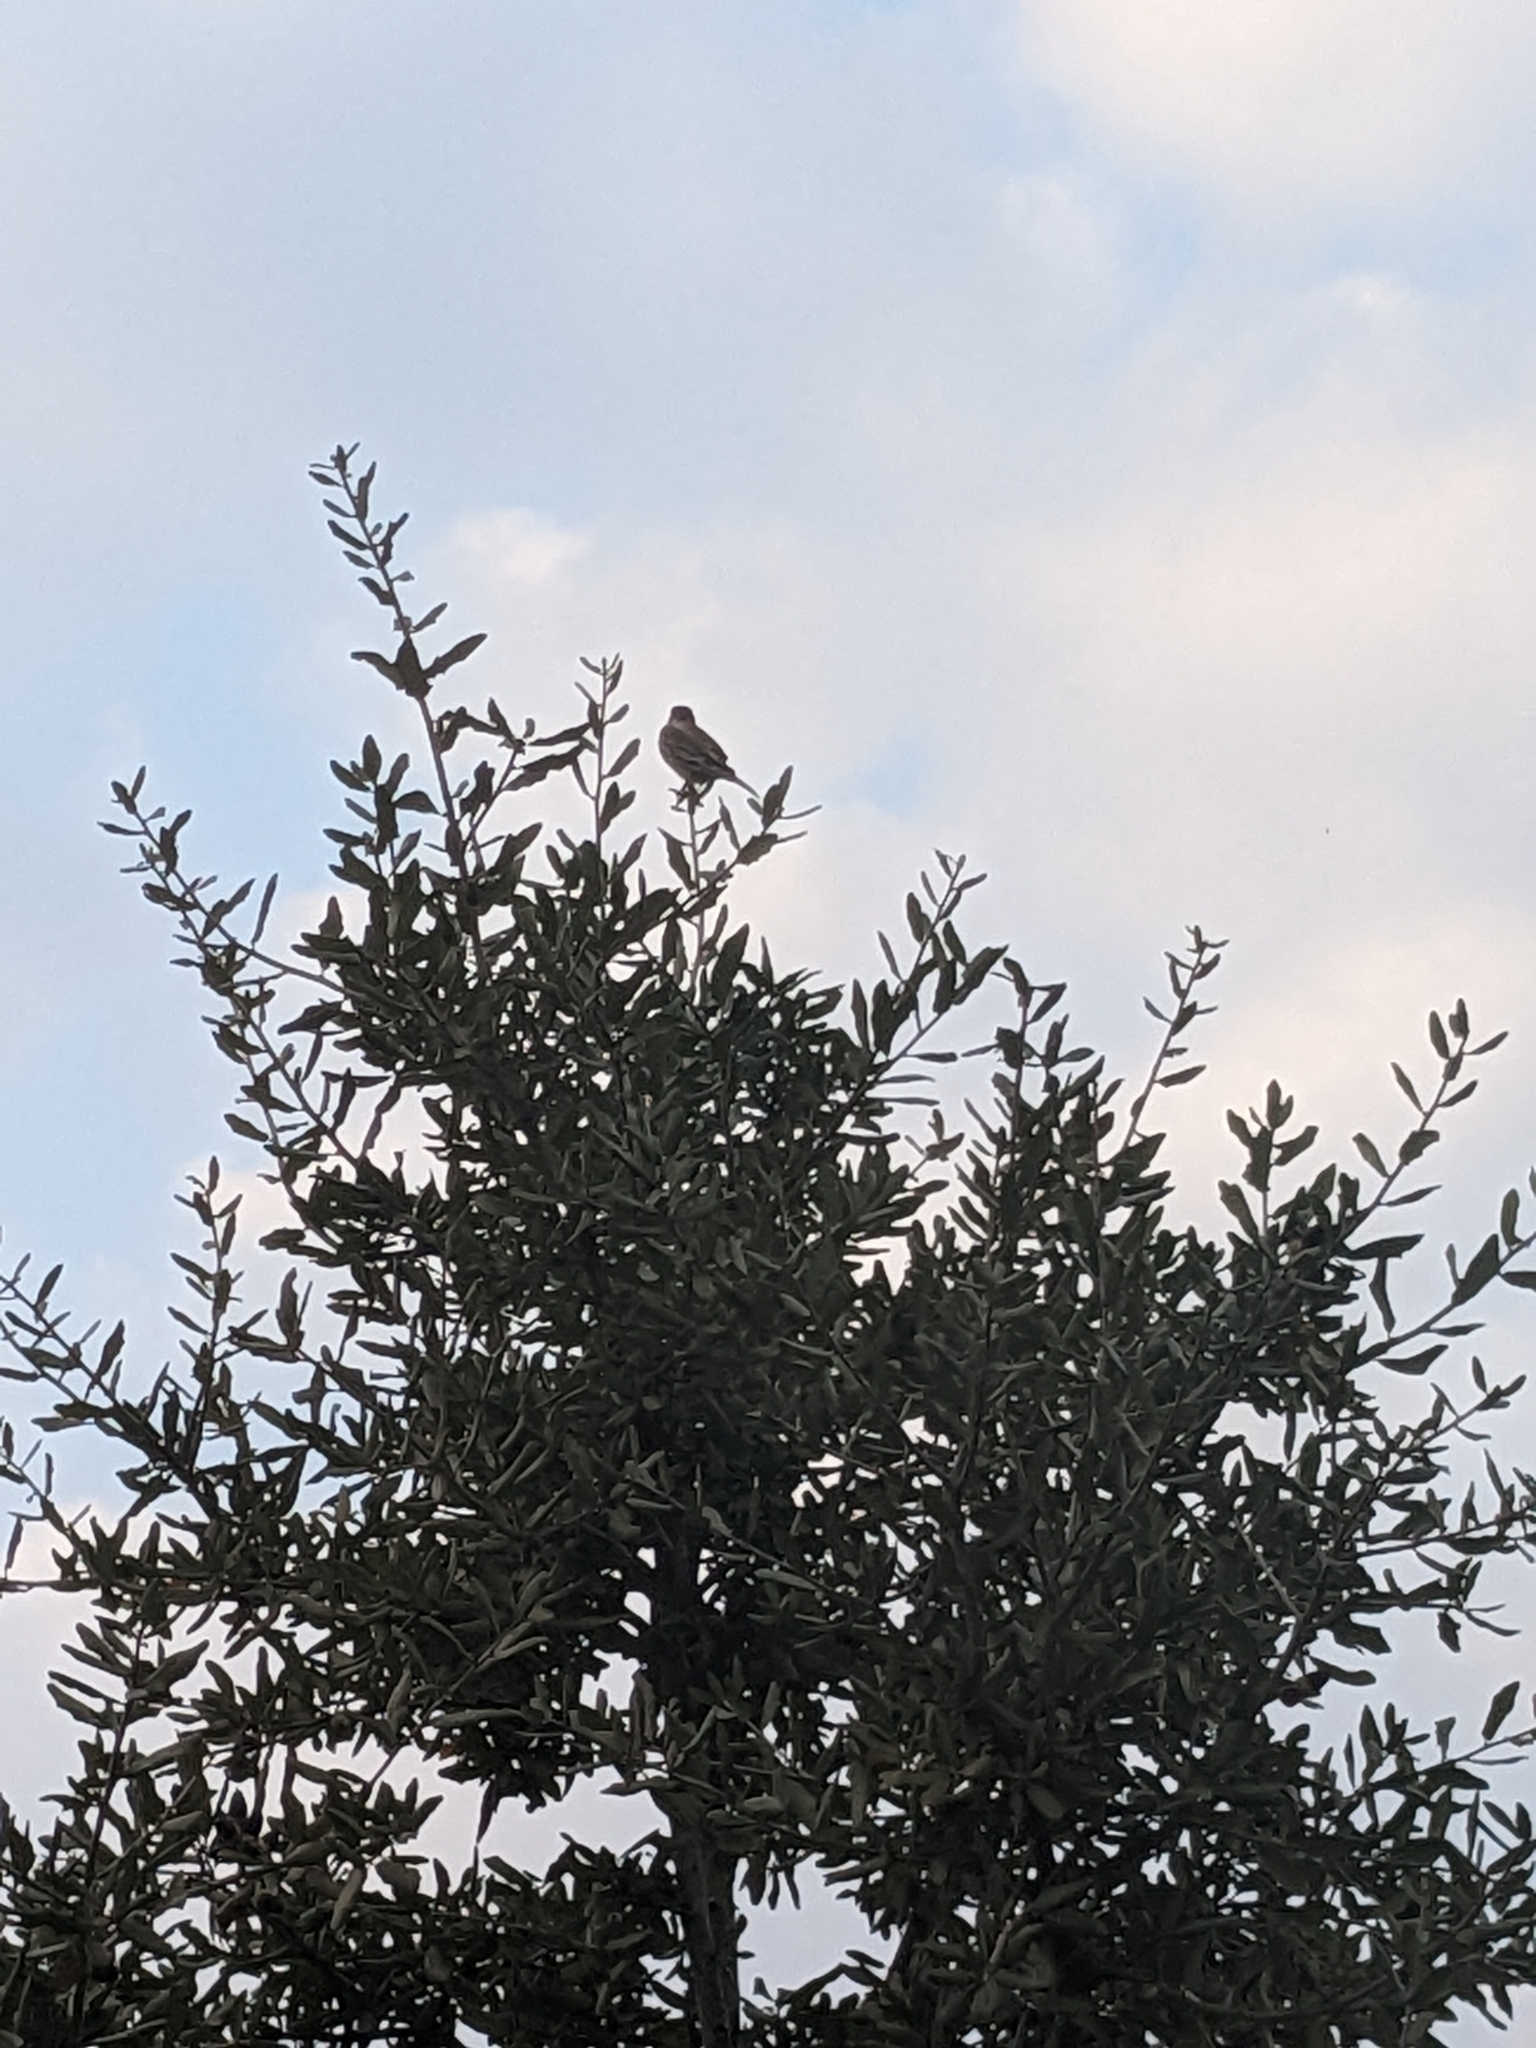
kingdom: Animalia
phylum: Chordata
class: Aves
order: Passeriformes
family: Fringillidae
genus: Haemorhous
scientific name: Haemorhous mexicanus
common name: House finch
